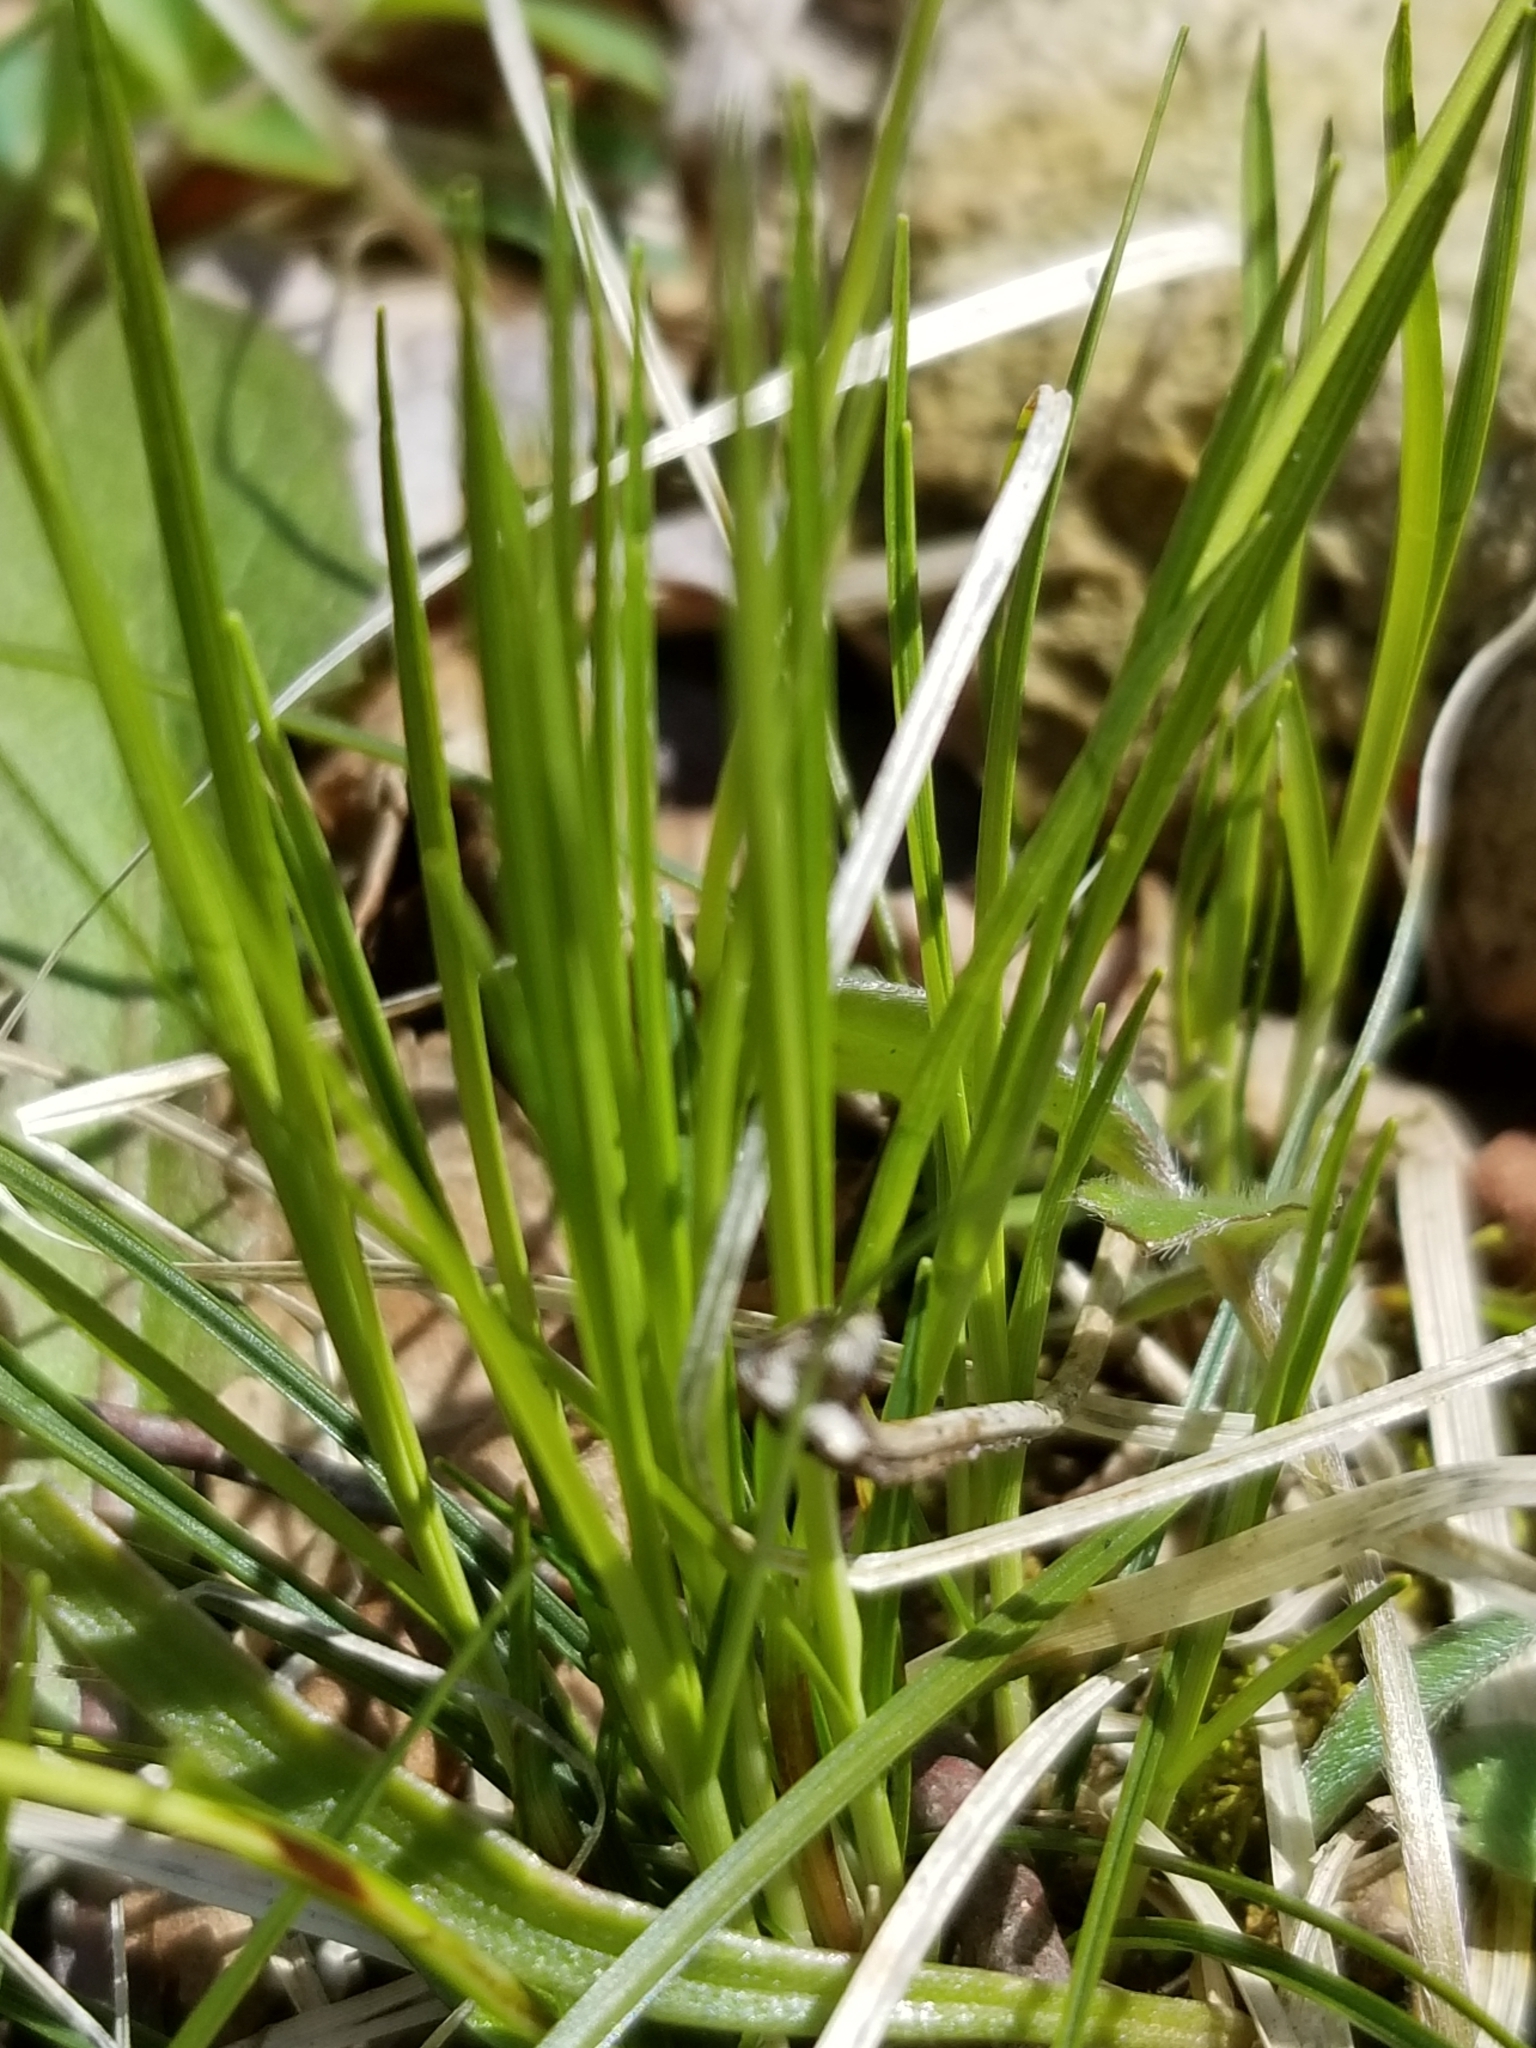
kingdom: Plantae
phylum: Tracheophyta
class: Liliopsida
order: Poales
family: Cyperaceae
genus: Carex
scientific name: Carex pensylvanica
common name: Common oak sedge
